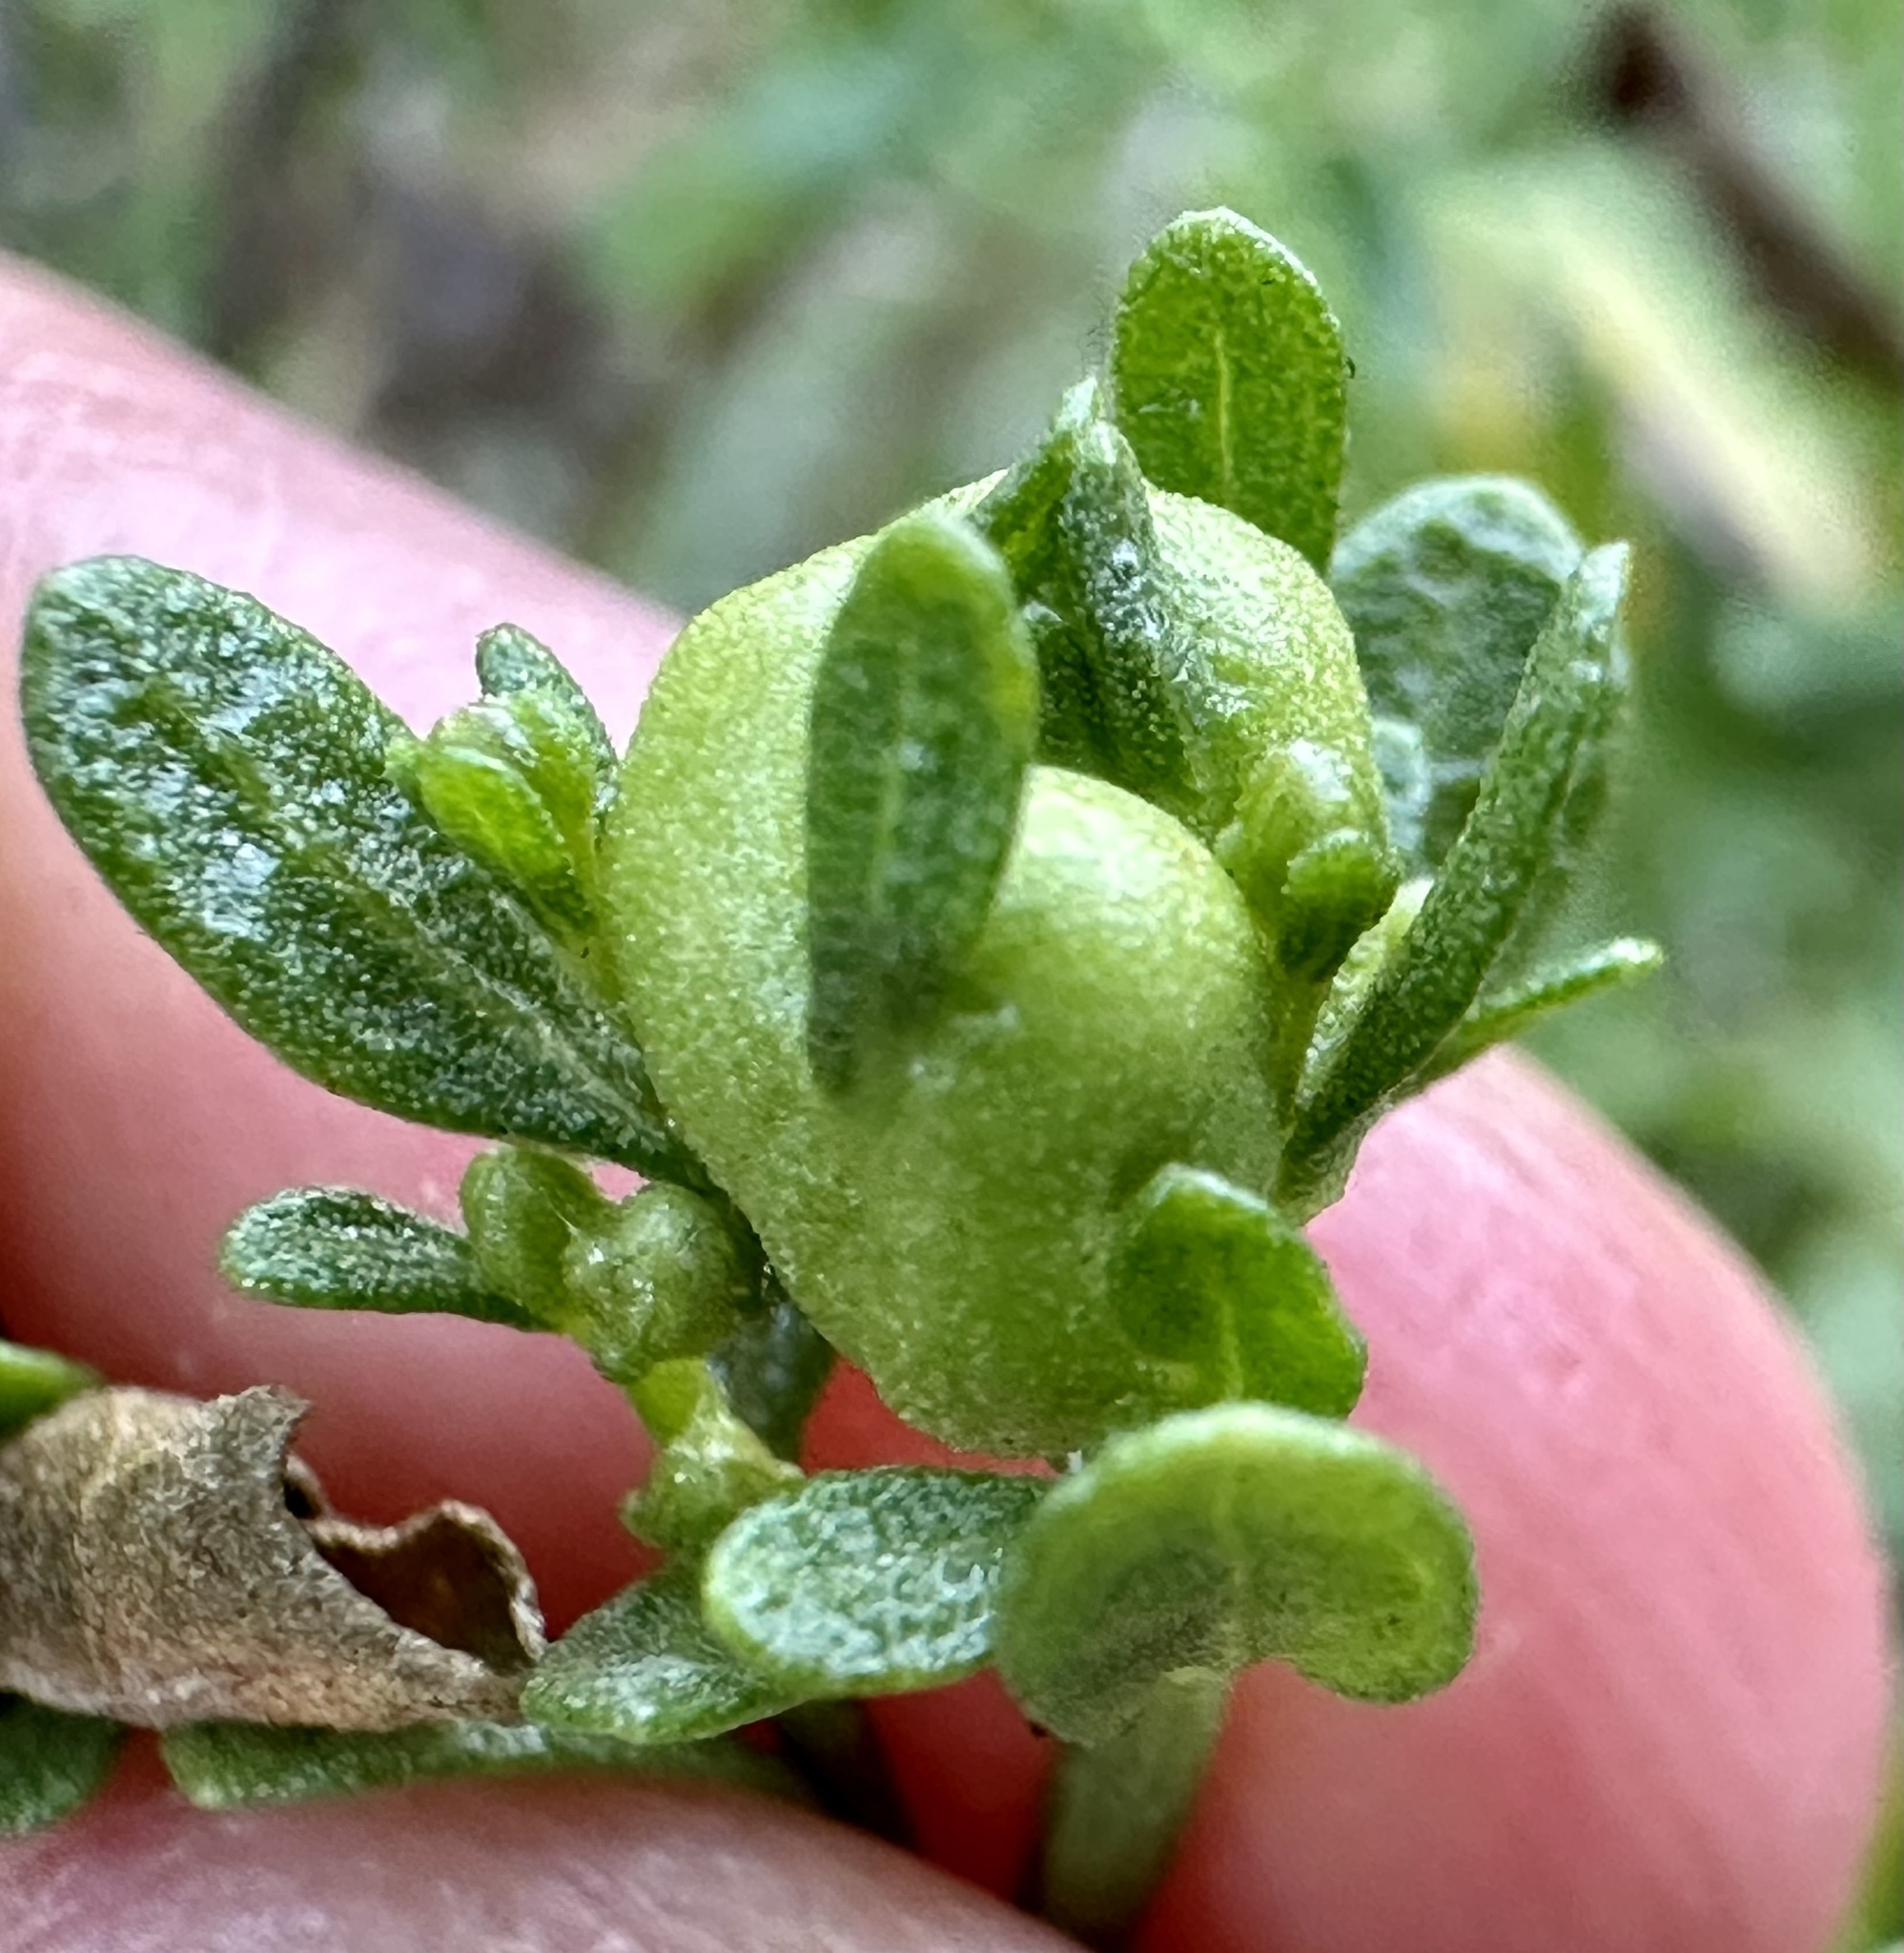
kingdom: Animalia
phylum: Arthropoda
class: Insecta
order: Diptera
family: Cecidomyiidae
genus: Rhopalomyia
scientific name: Rhopalomyia californica
